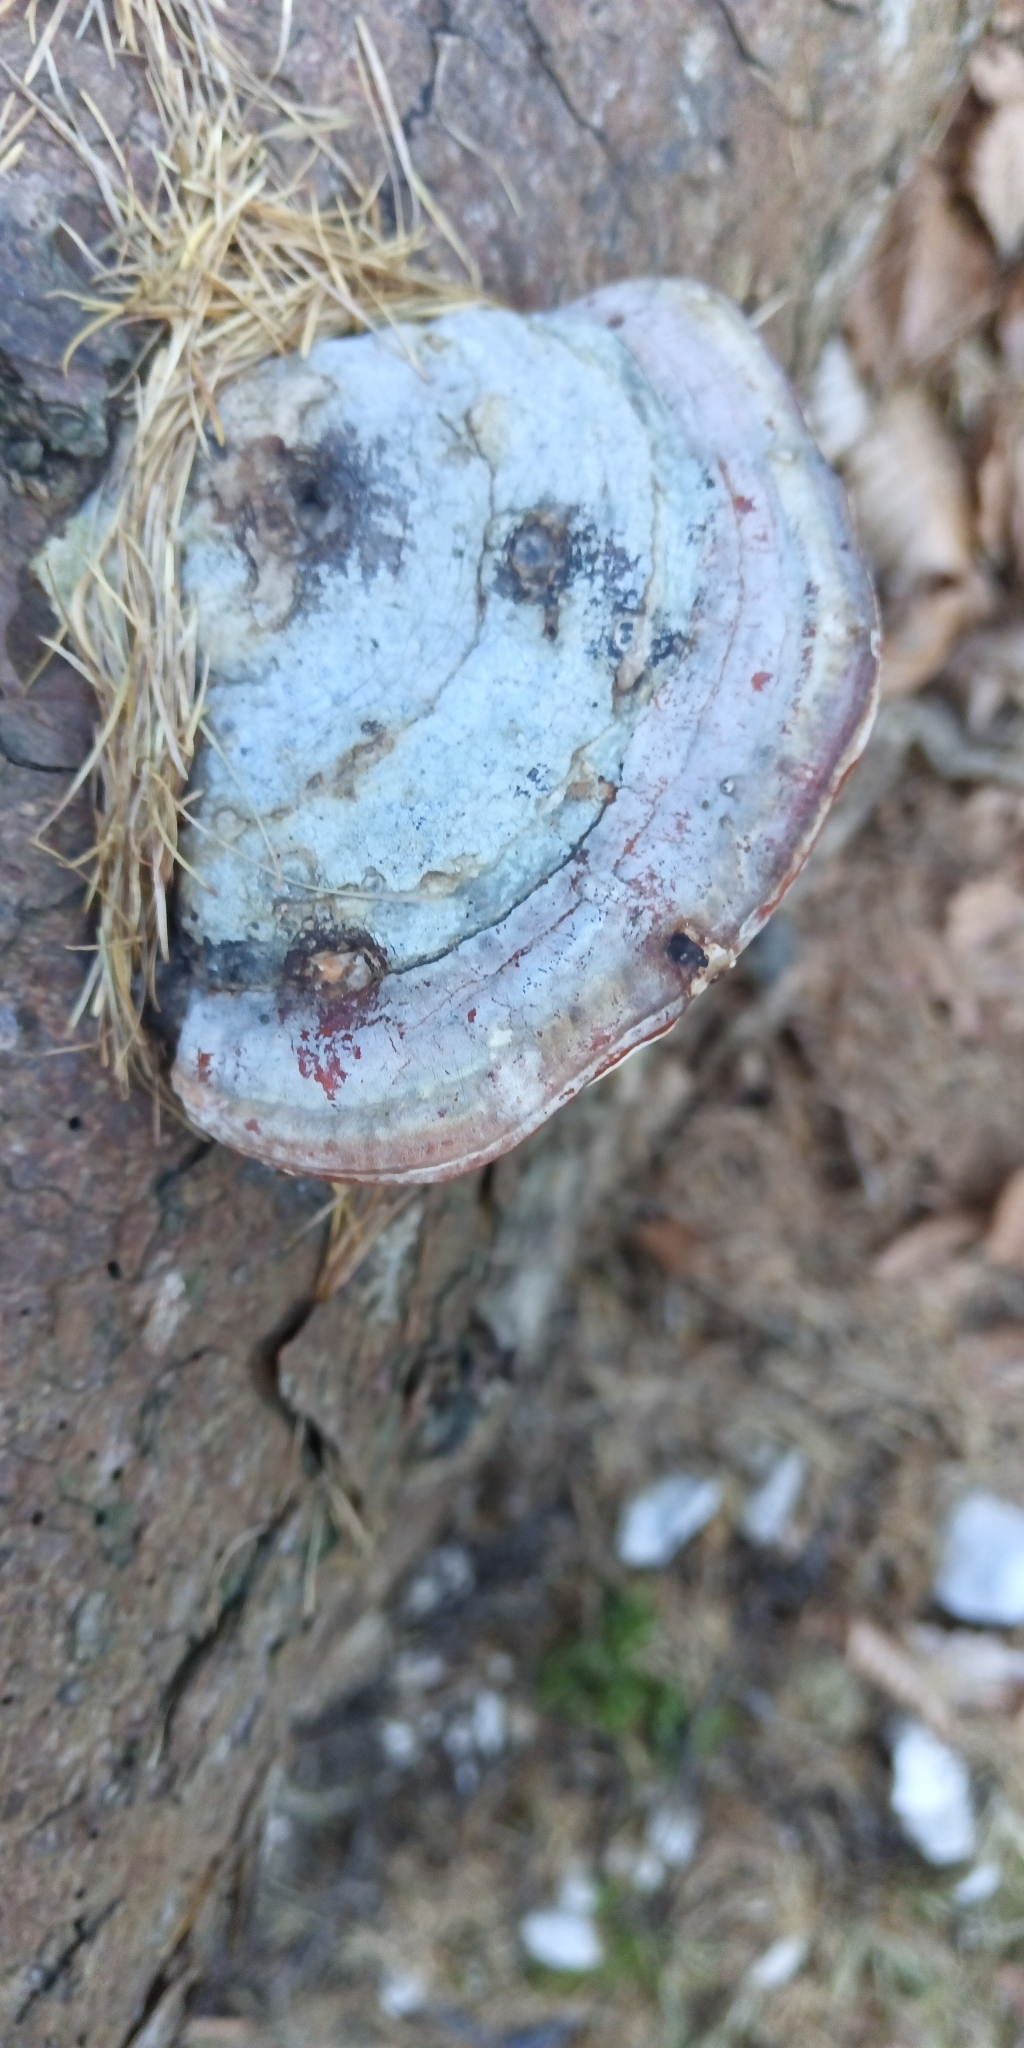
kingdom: Fungi
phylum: Basidiomycota
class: Agaricomycetes
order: Polyporales
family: Fomitopsidaceae
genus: Fomitopsis
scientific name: Fomitopsis pinicola
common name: Red-belted bracket
